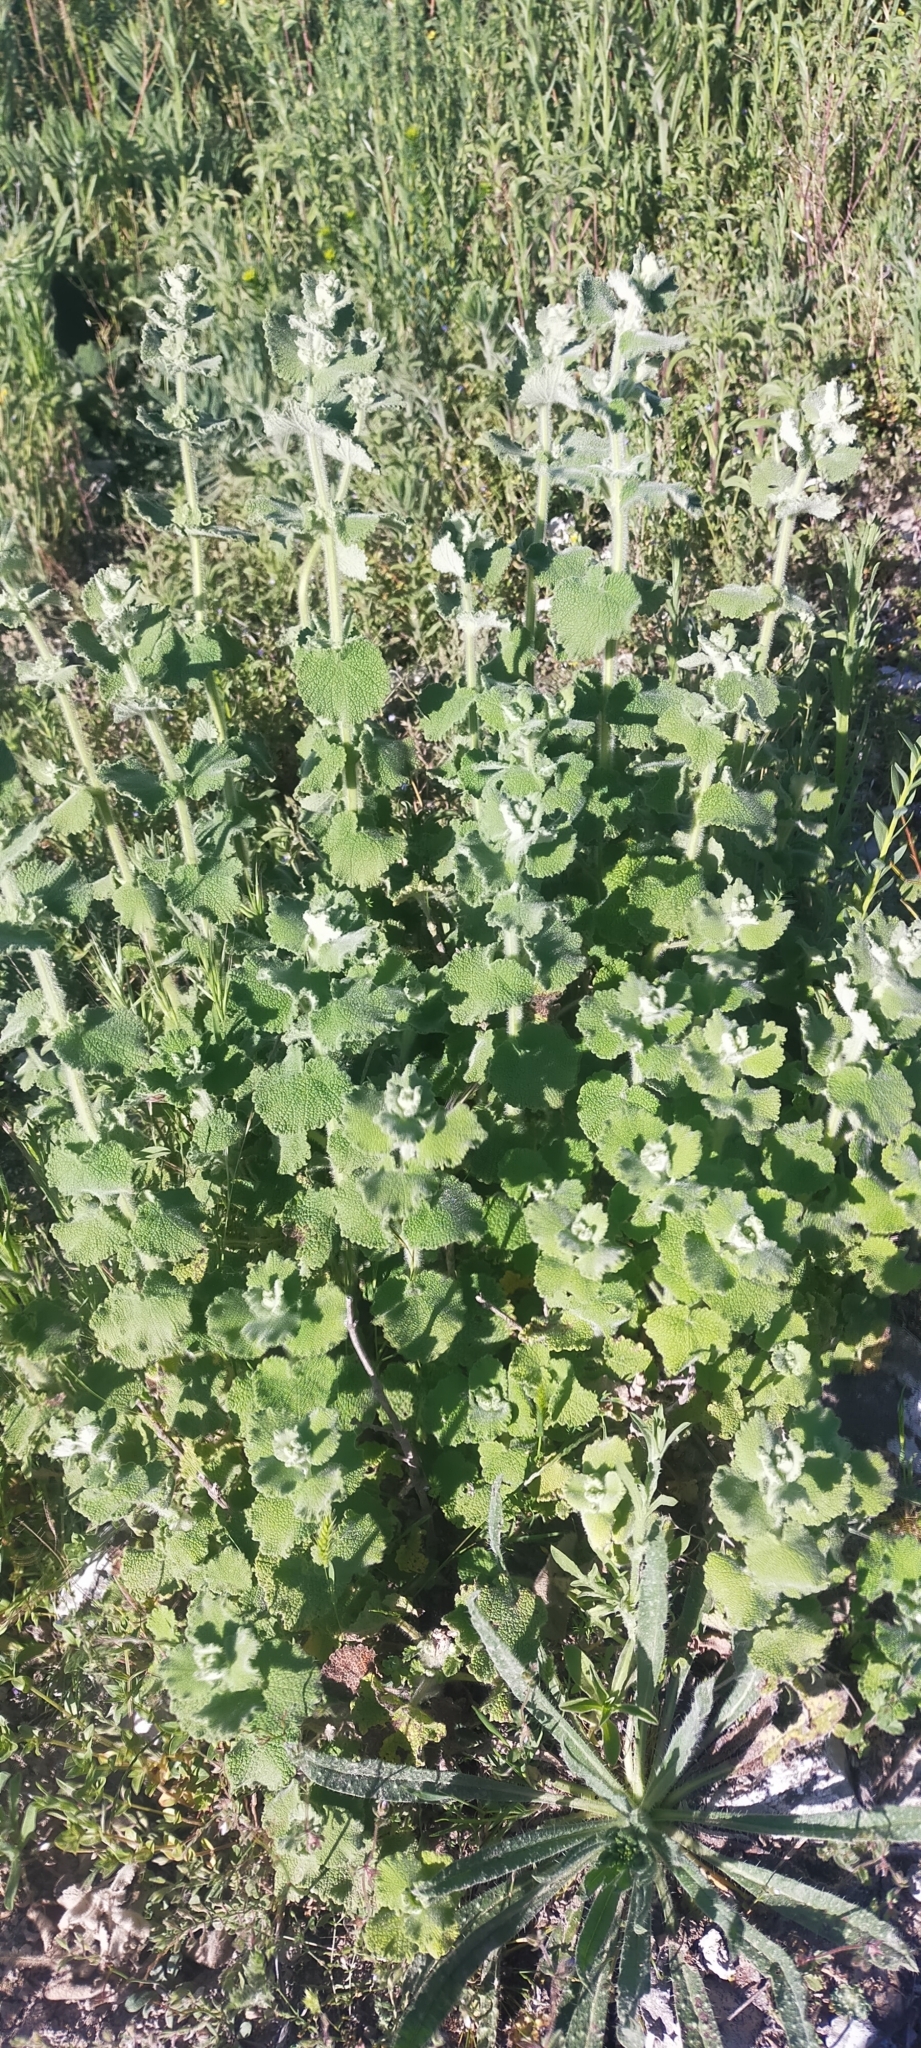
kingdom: Plantae
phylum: Tracheophyta
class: Magnoliopsida
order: Lamiales
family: Lamiaceae
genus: Pseudodictamnus
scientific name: Pseudodictamnus hirsutus
